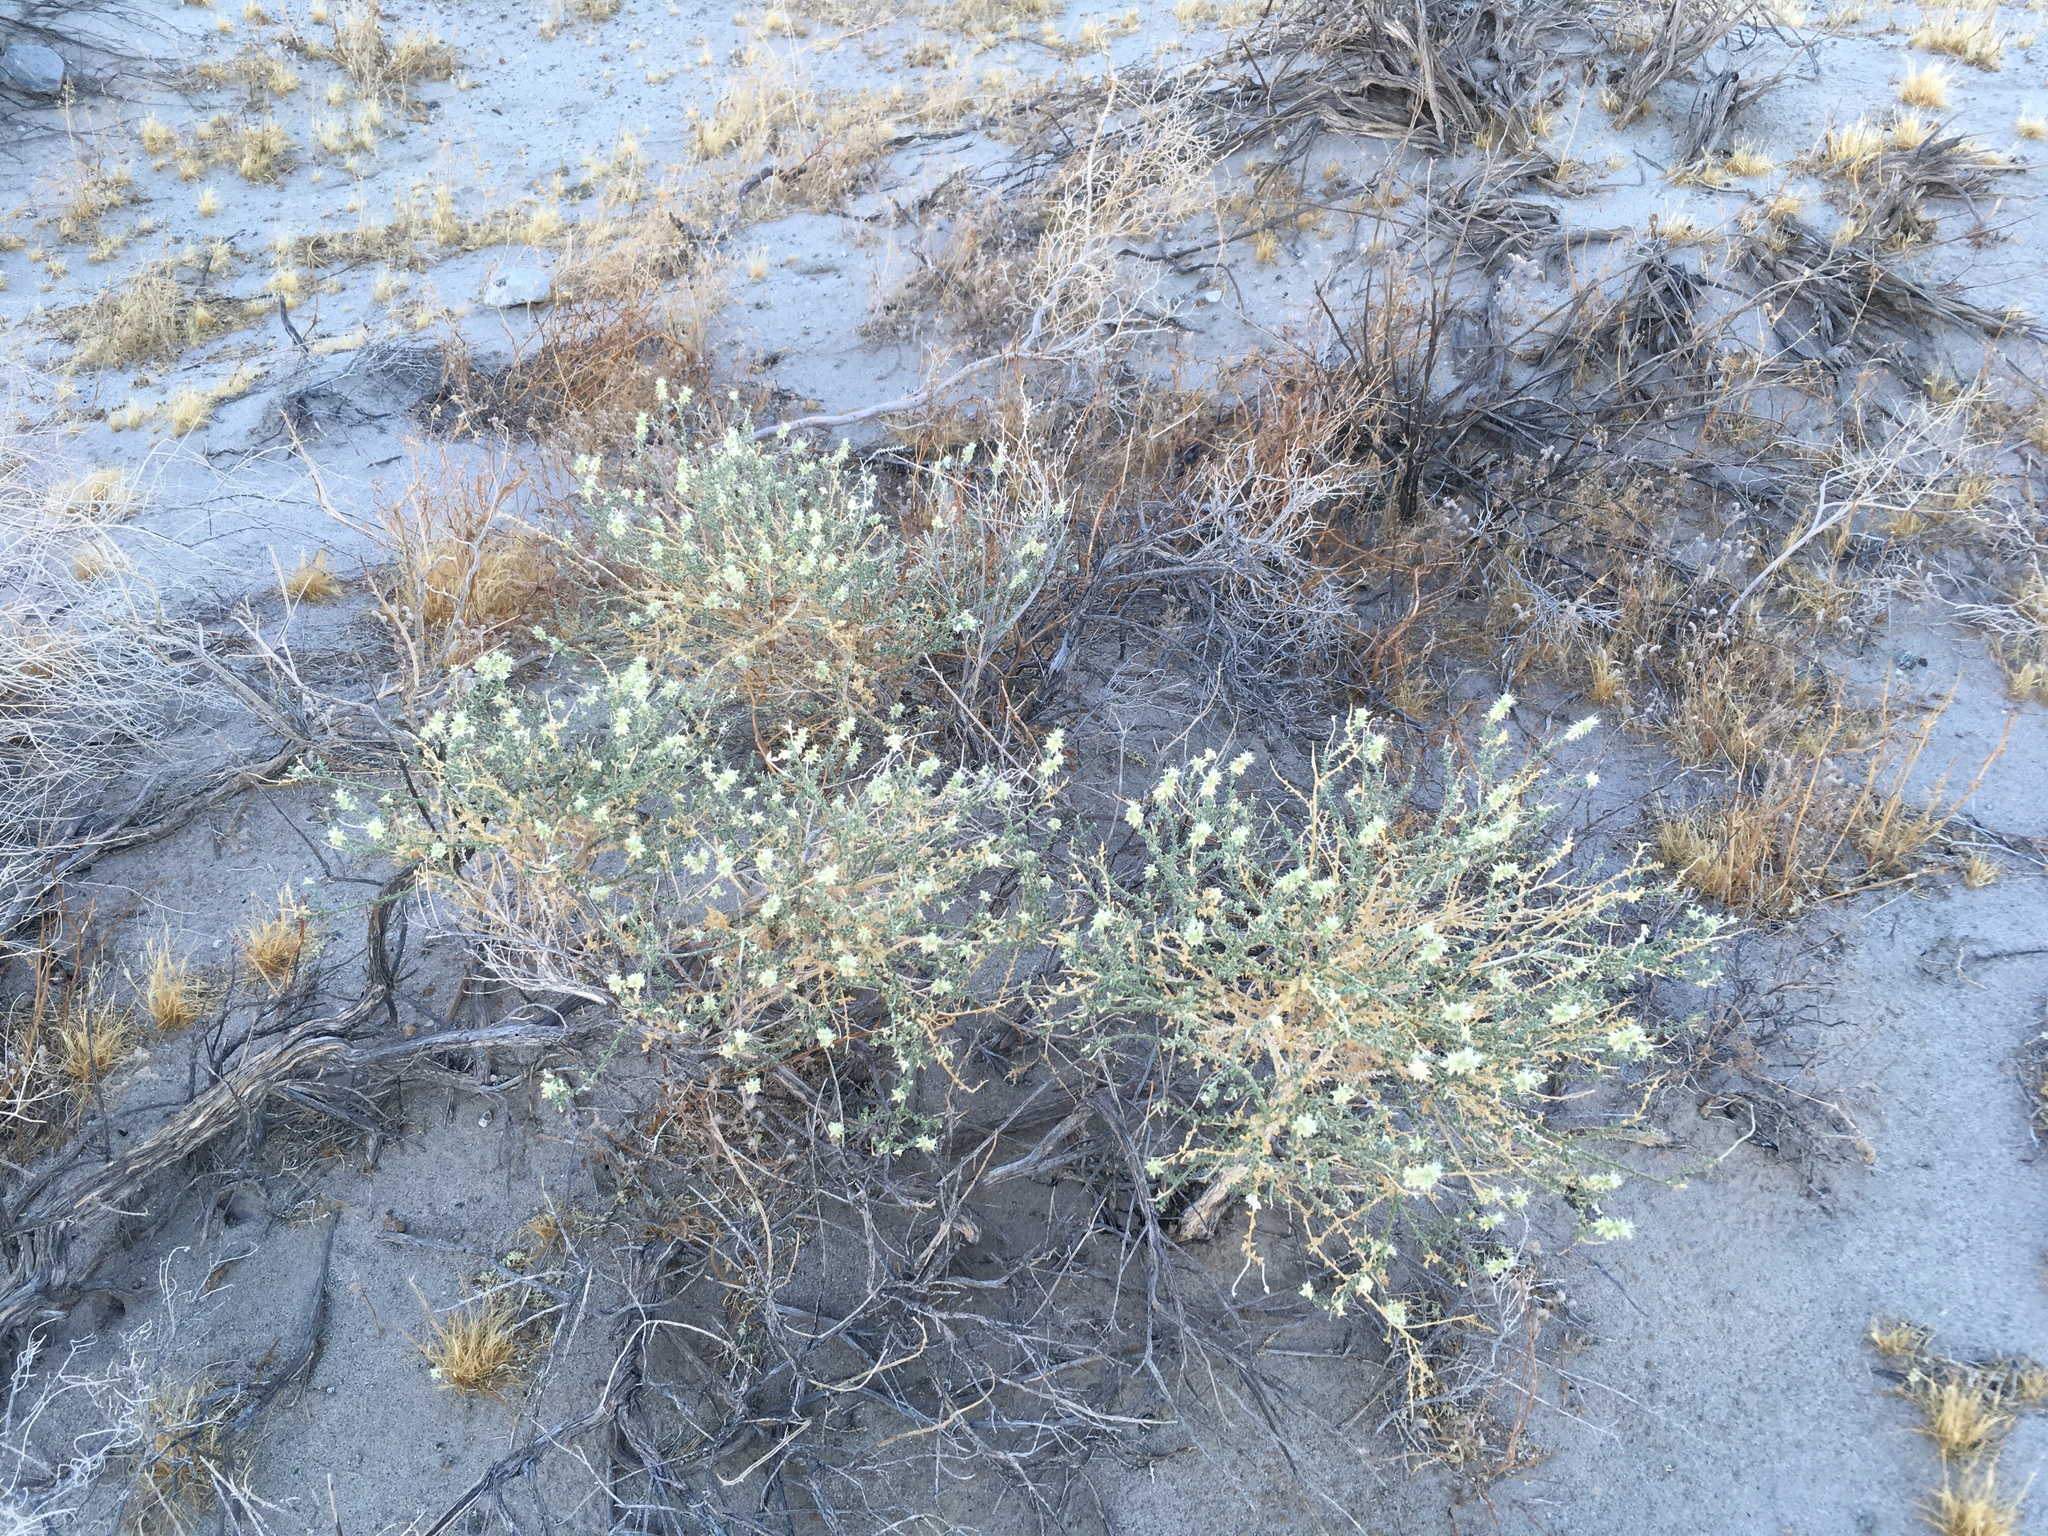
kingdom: Plantae
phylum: Tracheophyta
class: Magnoliopsida
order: Cornales
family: Loasaceae
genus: Petalonyx
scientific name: Petalonyx thurberi
